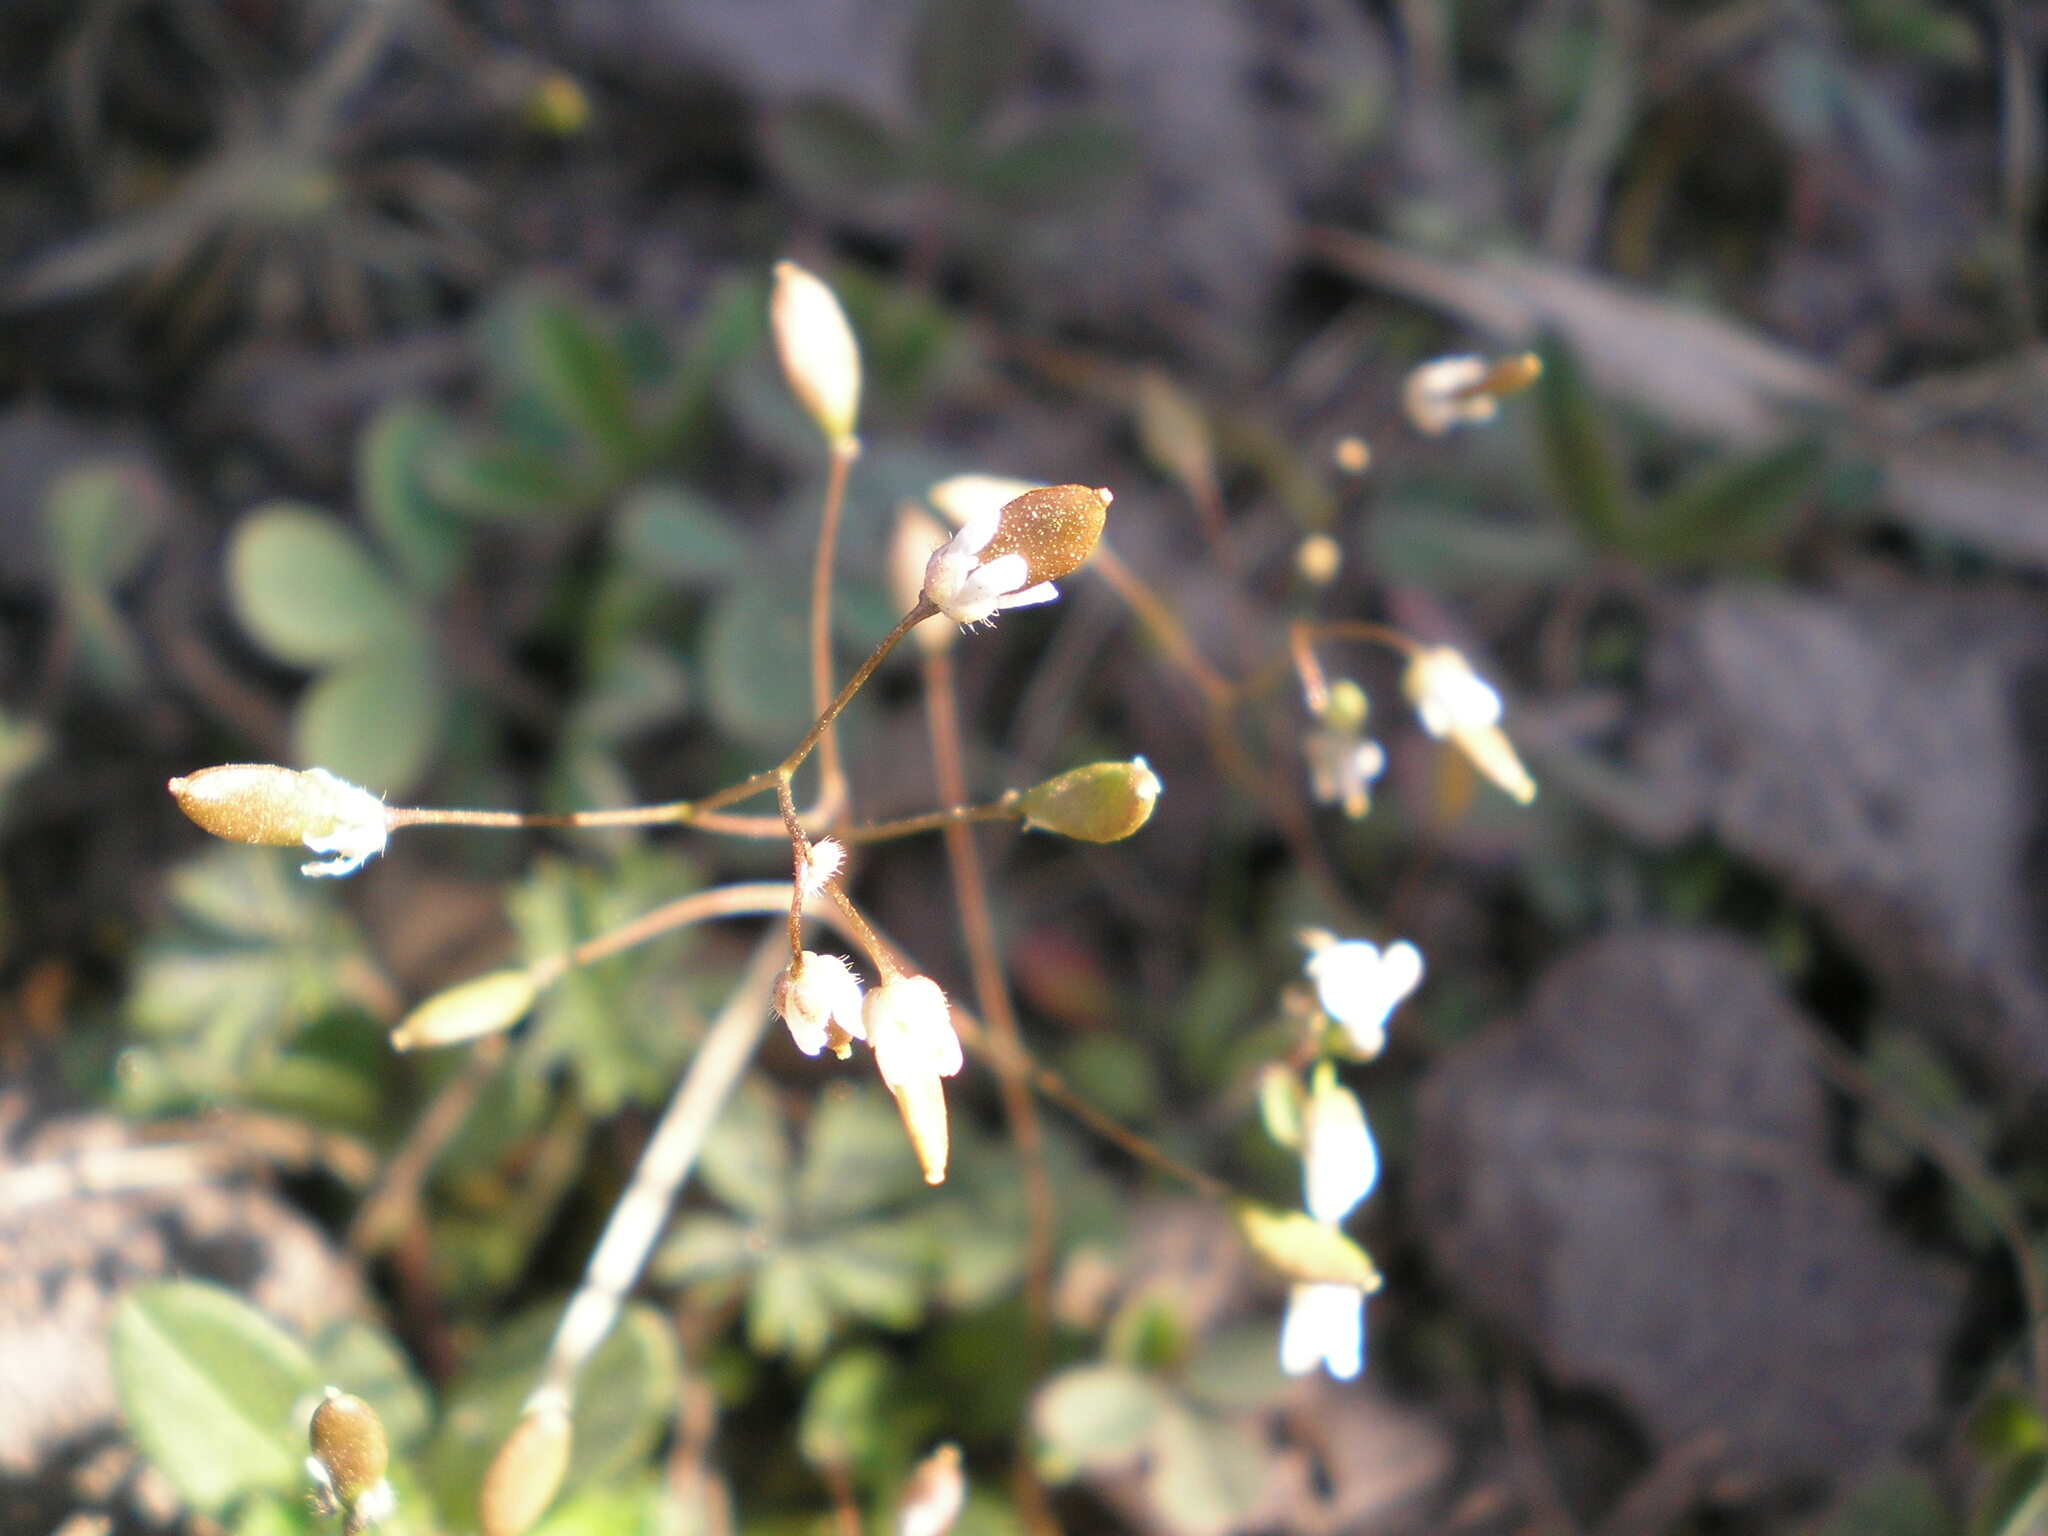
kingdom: Plantae
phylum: Tracheophyta
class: Magnoliopsida
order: Brassicales
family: Brassicaceae
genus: Draba
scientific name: Draba verna
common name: Spring draba
